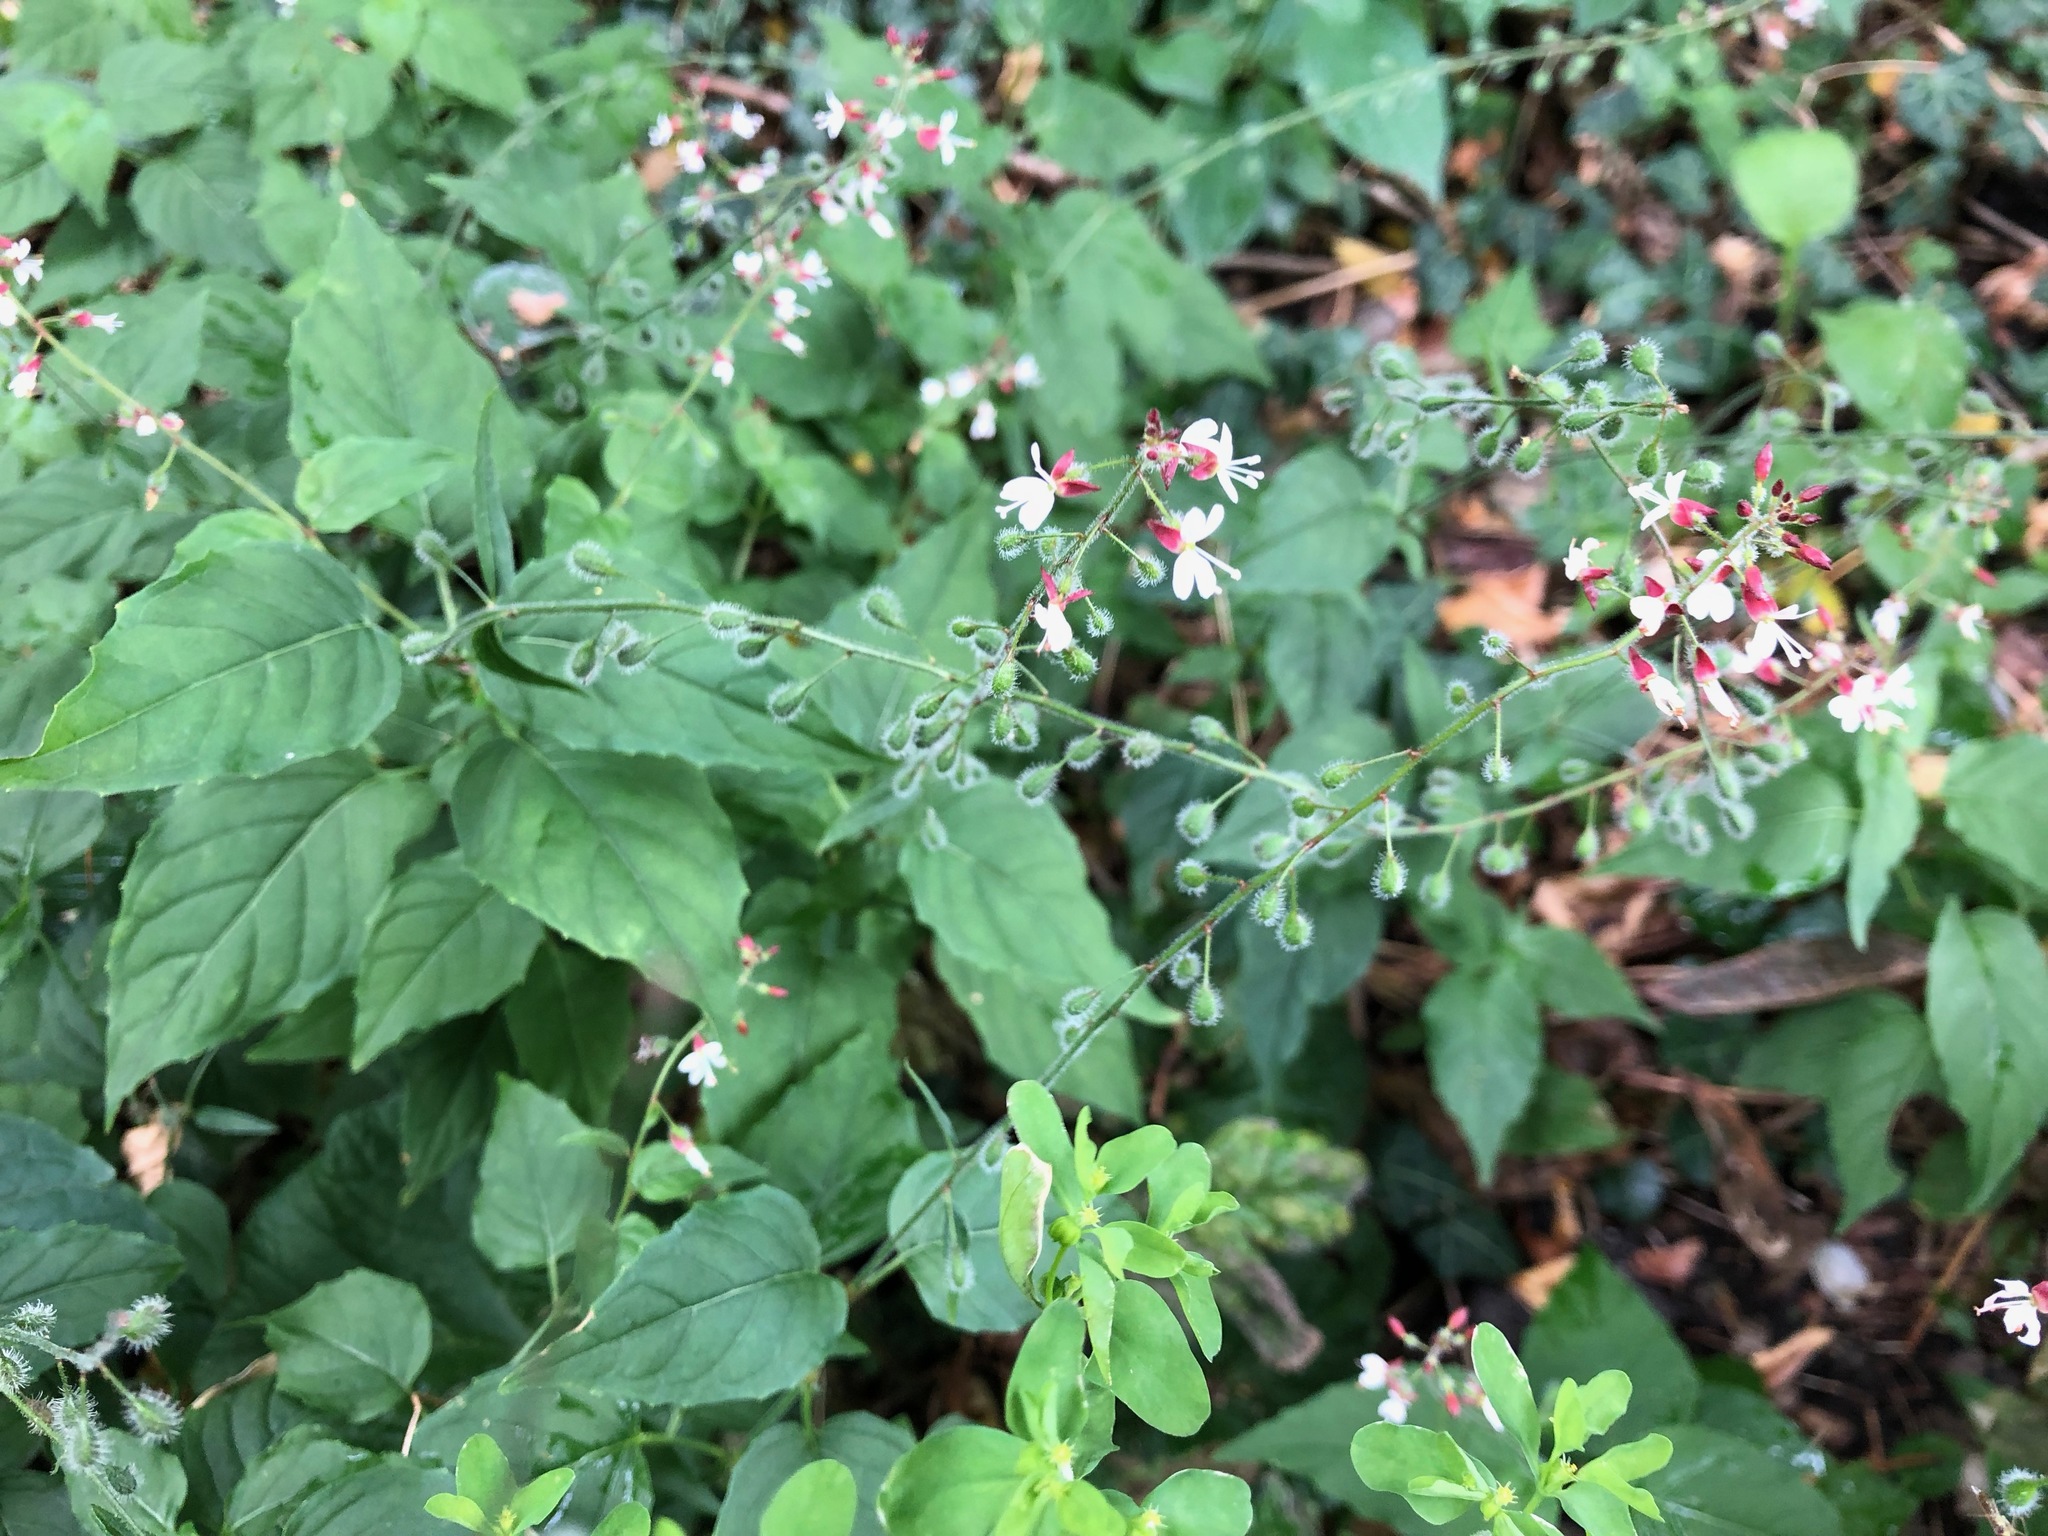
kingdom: Plantae
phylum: Tracheophyta
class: Magnoliopsida
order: Myrtales
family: Onagraceae
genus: Circaea
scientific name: Circaea lutetiana
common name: Enchanter's-nightshade
